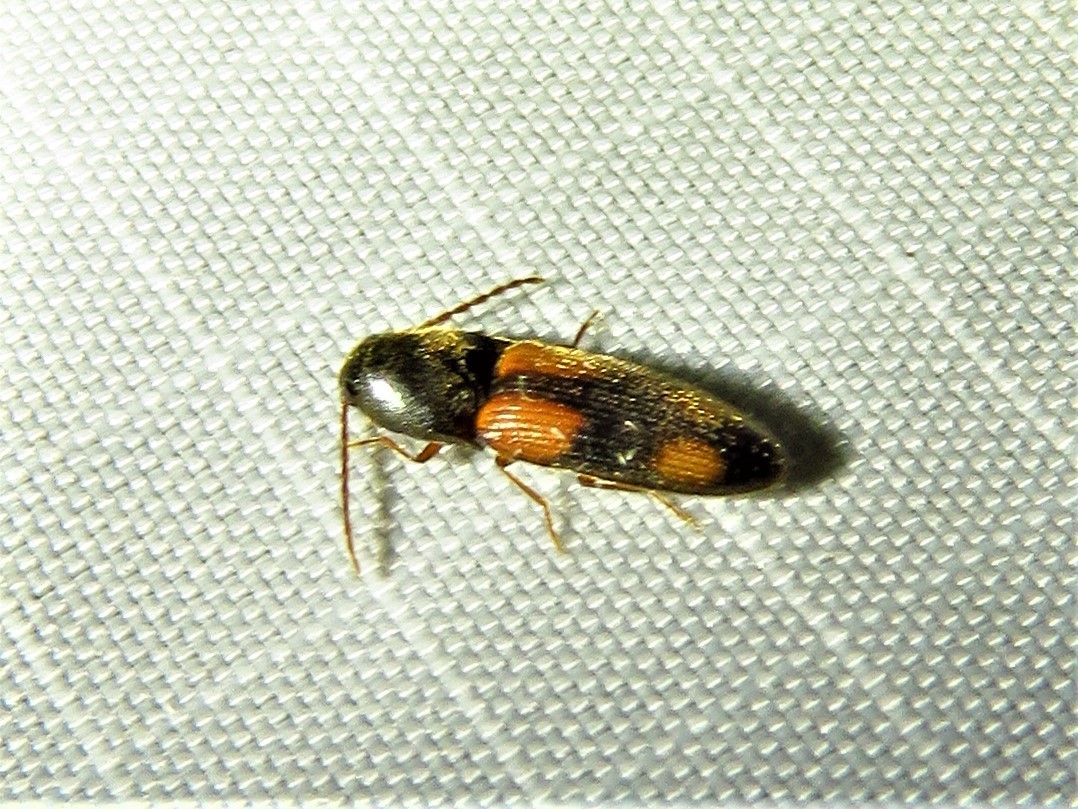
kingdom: Animalia
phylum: Arthropoda
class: Insecta
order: Coleoptera
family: Elateridae
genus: Anchastus
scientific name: Anchastus binus
